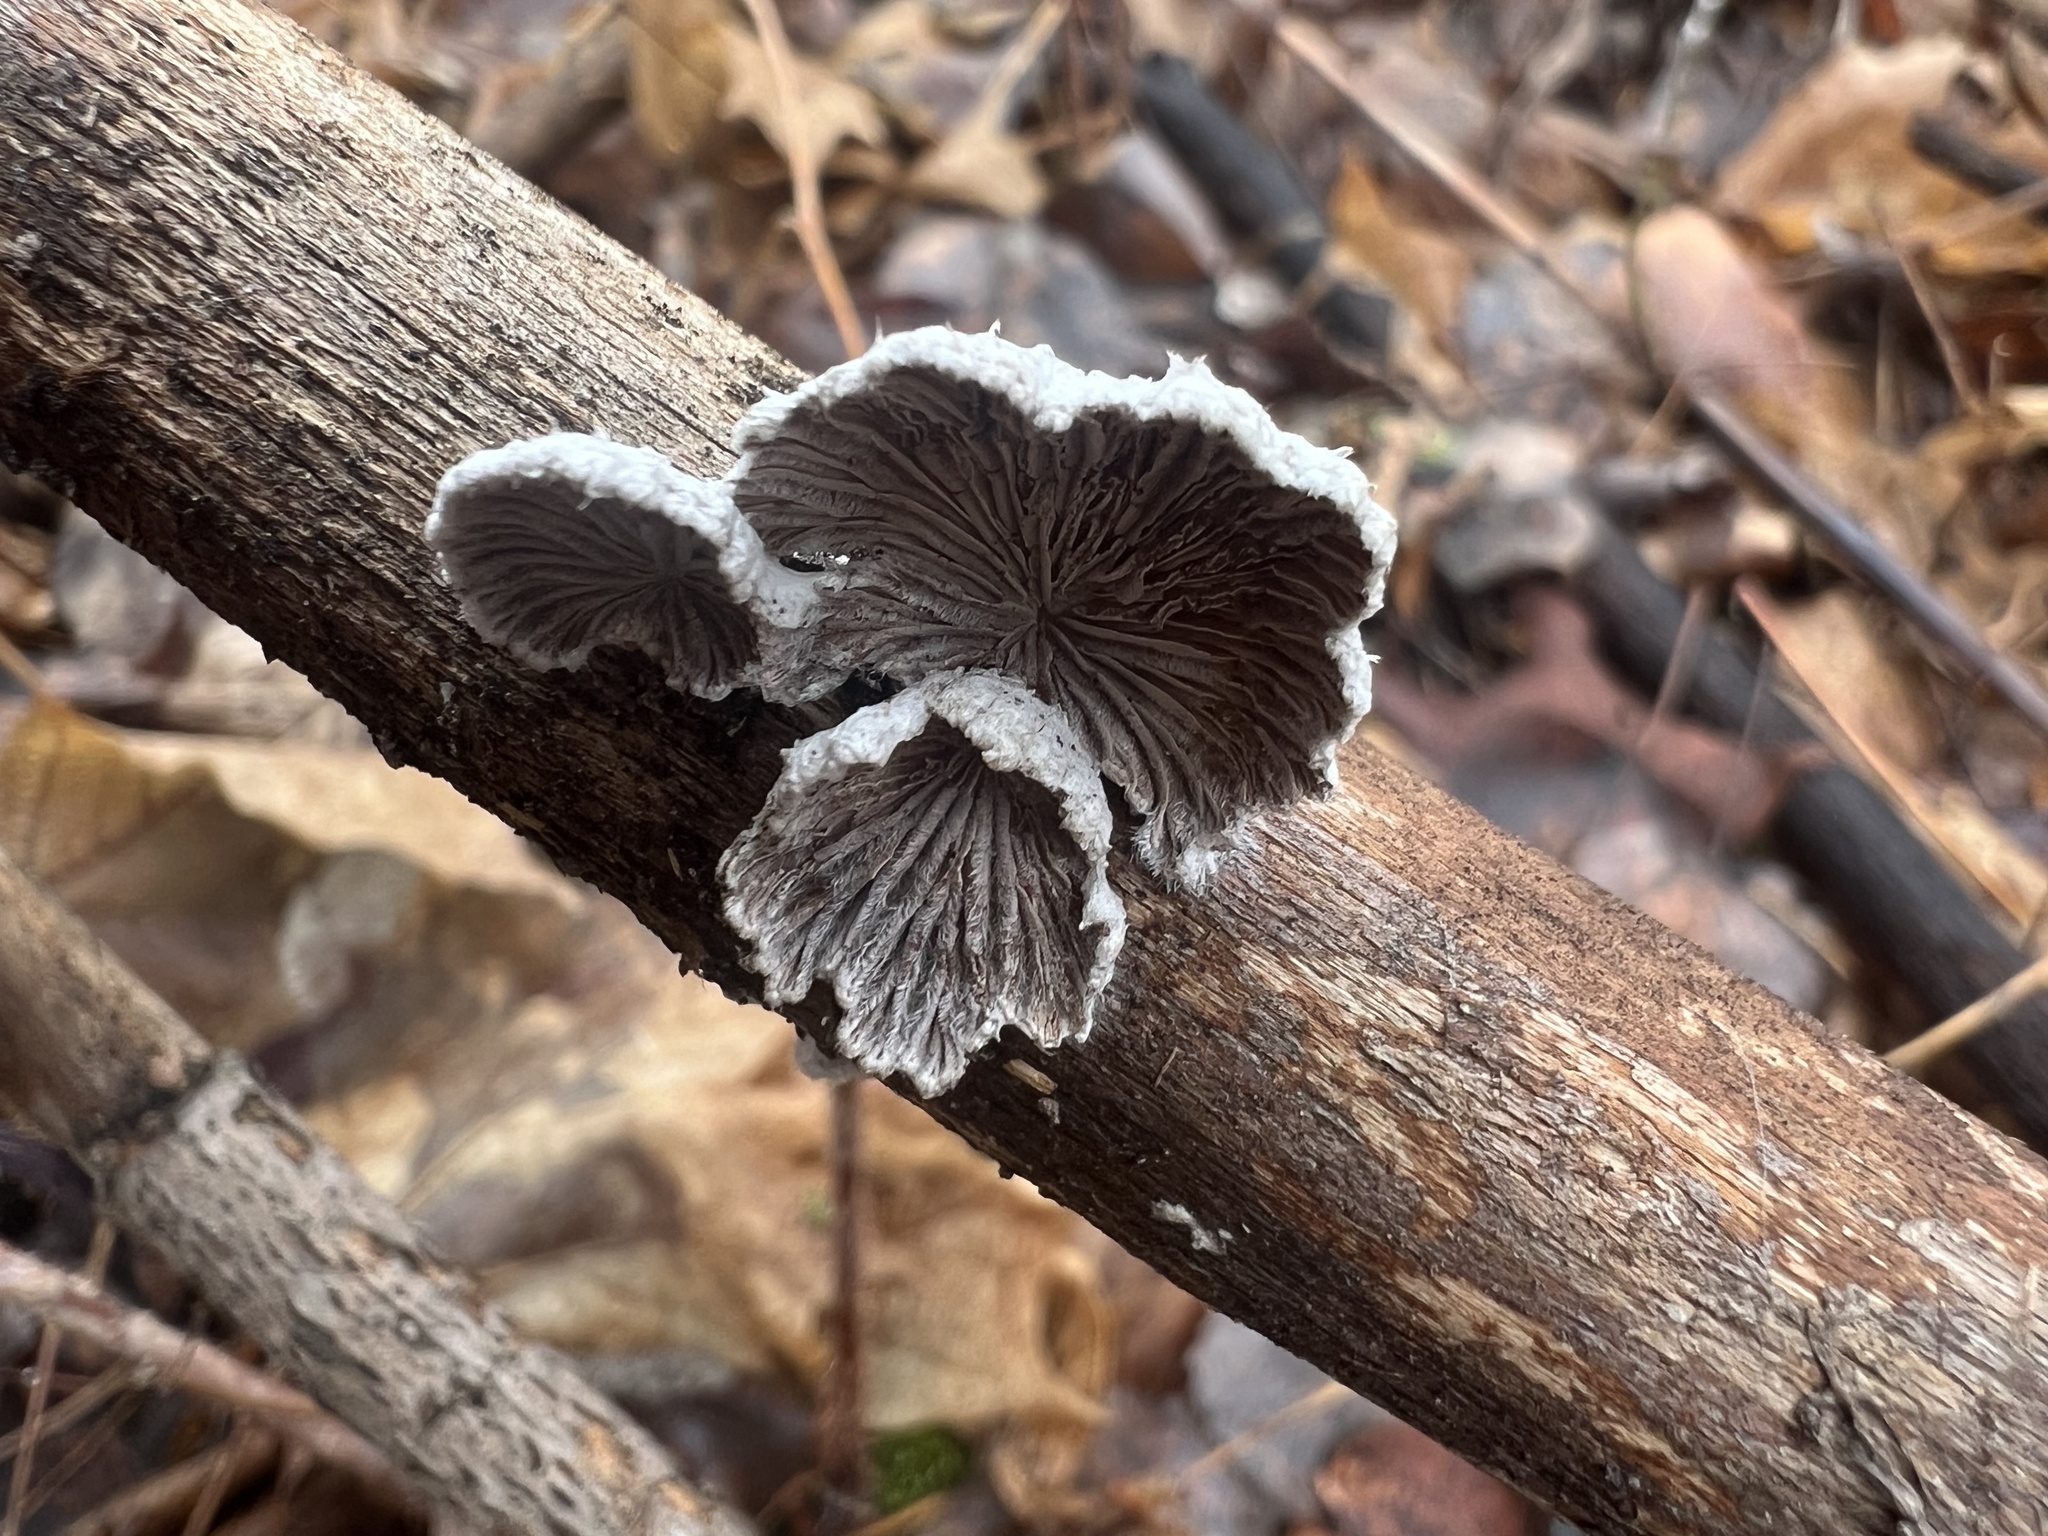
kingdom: Fungi
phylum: Basidiomycota
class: Agaricomycetes
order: Agaricales
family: Schizophyllaceae
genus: Schizophyllum
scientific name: Schizophyllum commune
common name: Common porecrust
